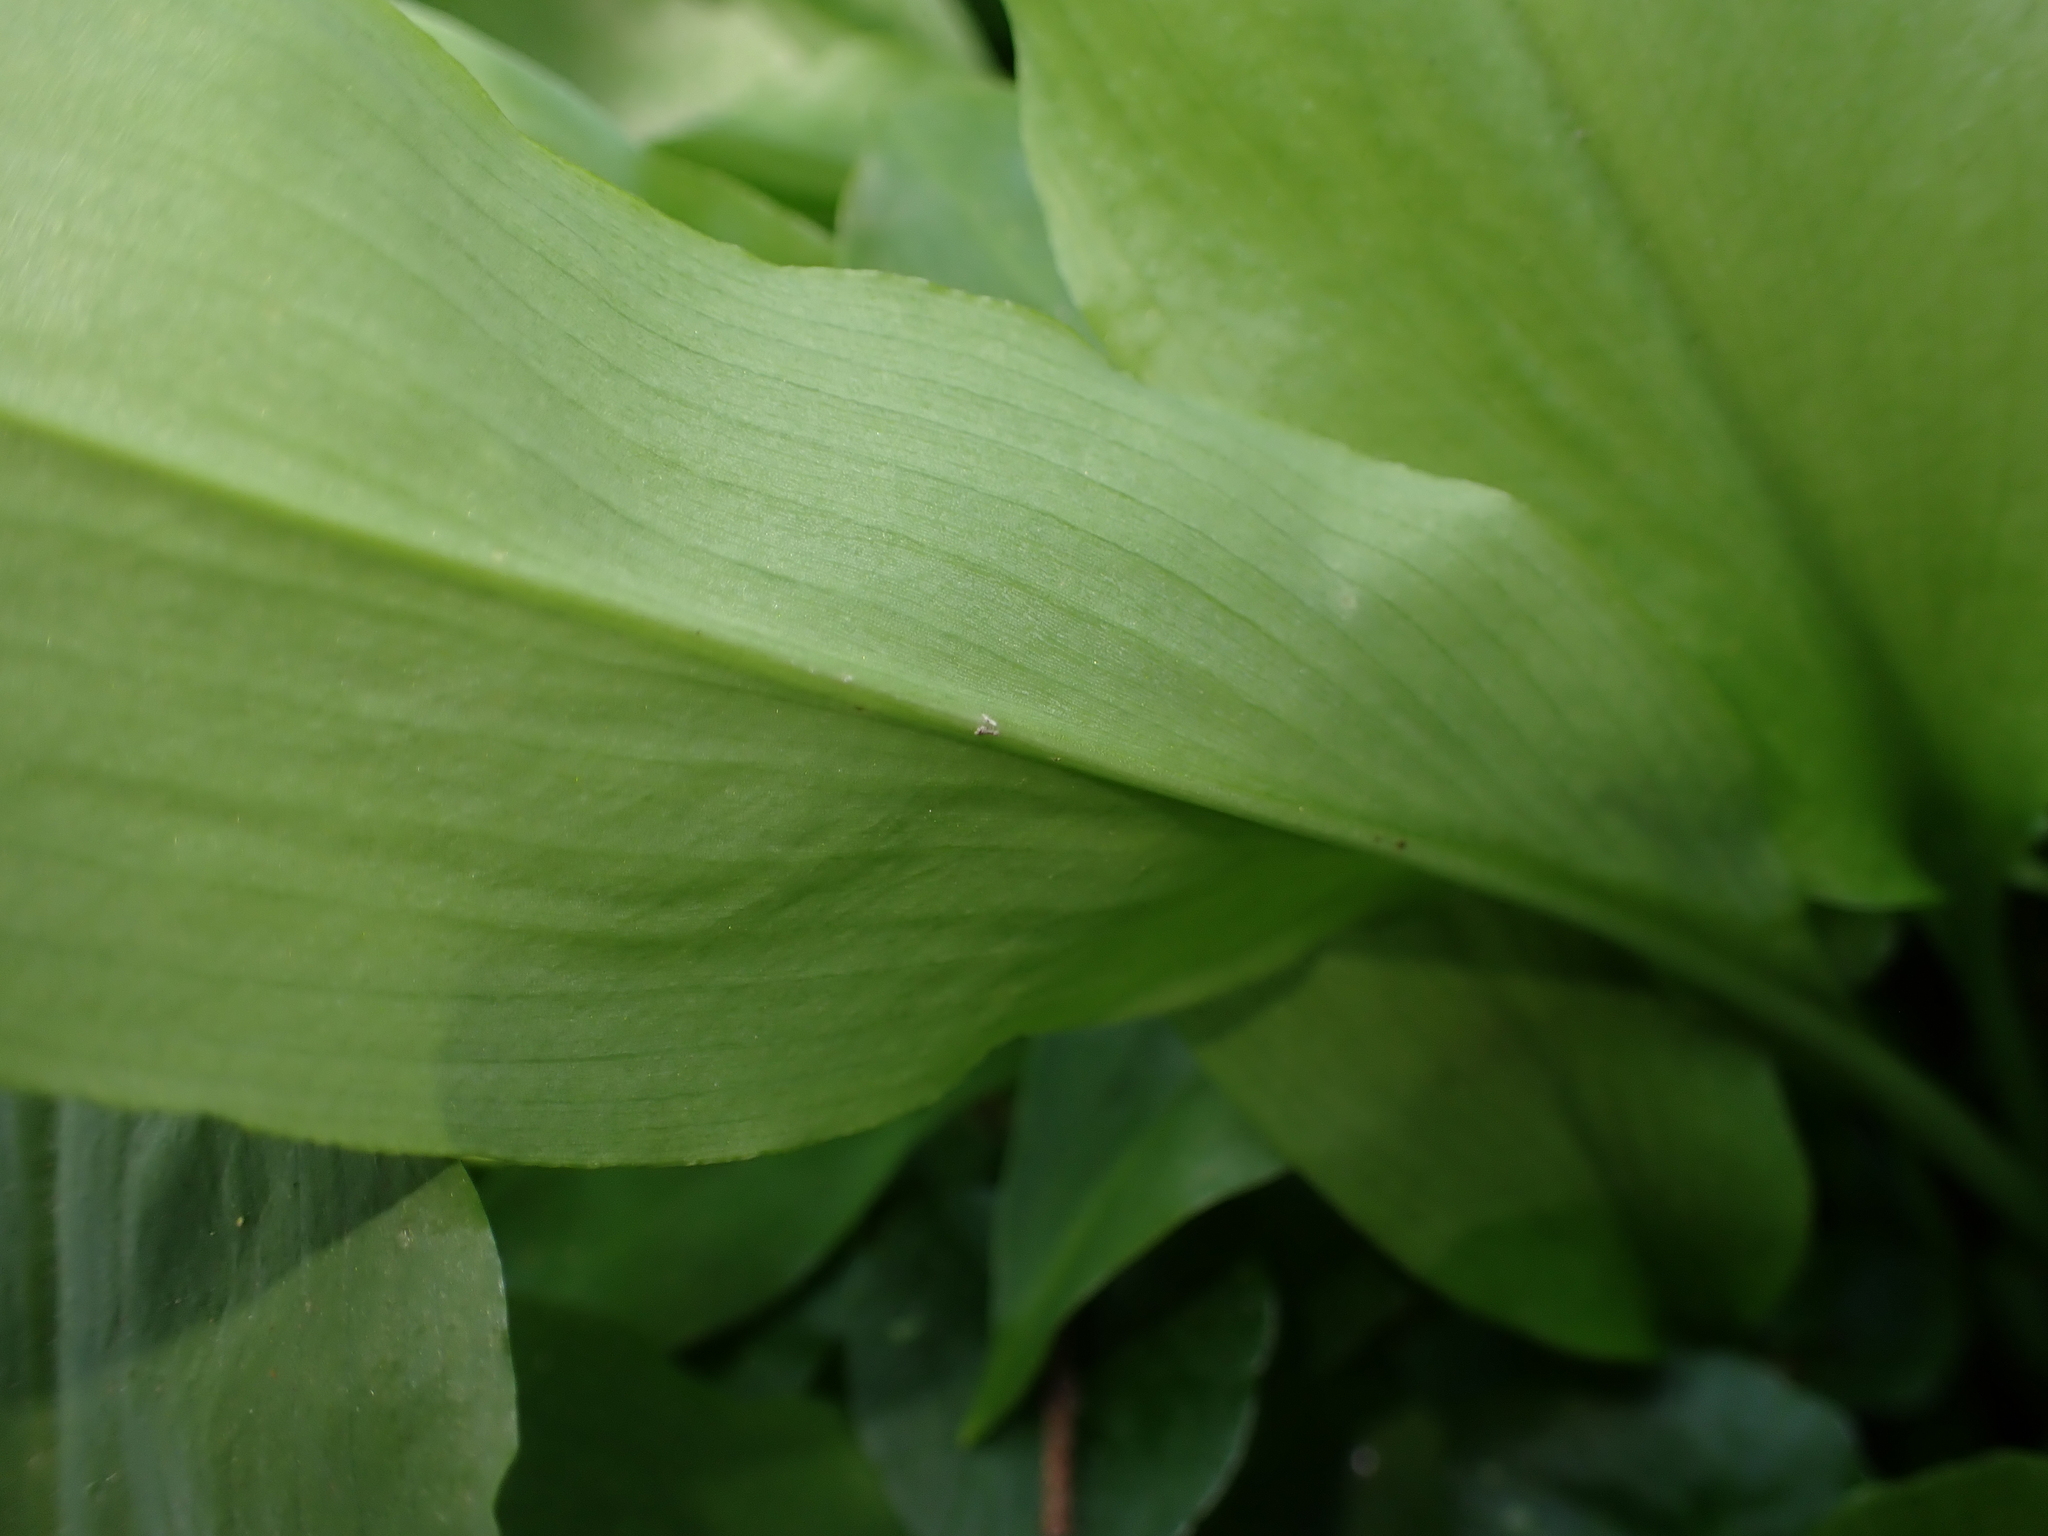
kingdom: Plantae
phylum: Tracheophyta
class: Liliopsida
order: Asparagales
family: Amaryllidaceae
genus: Allium
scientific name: Allium ursinum
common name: Ramsons
